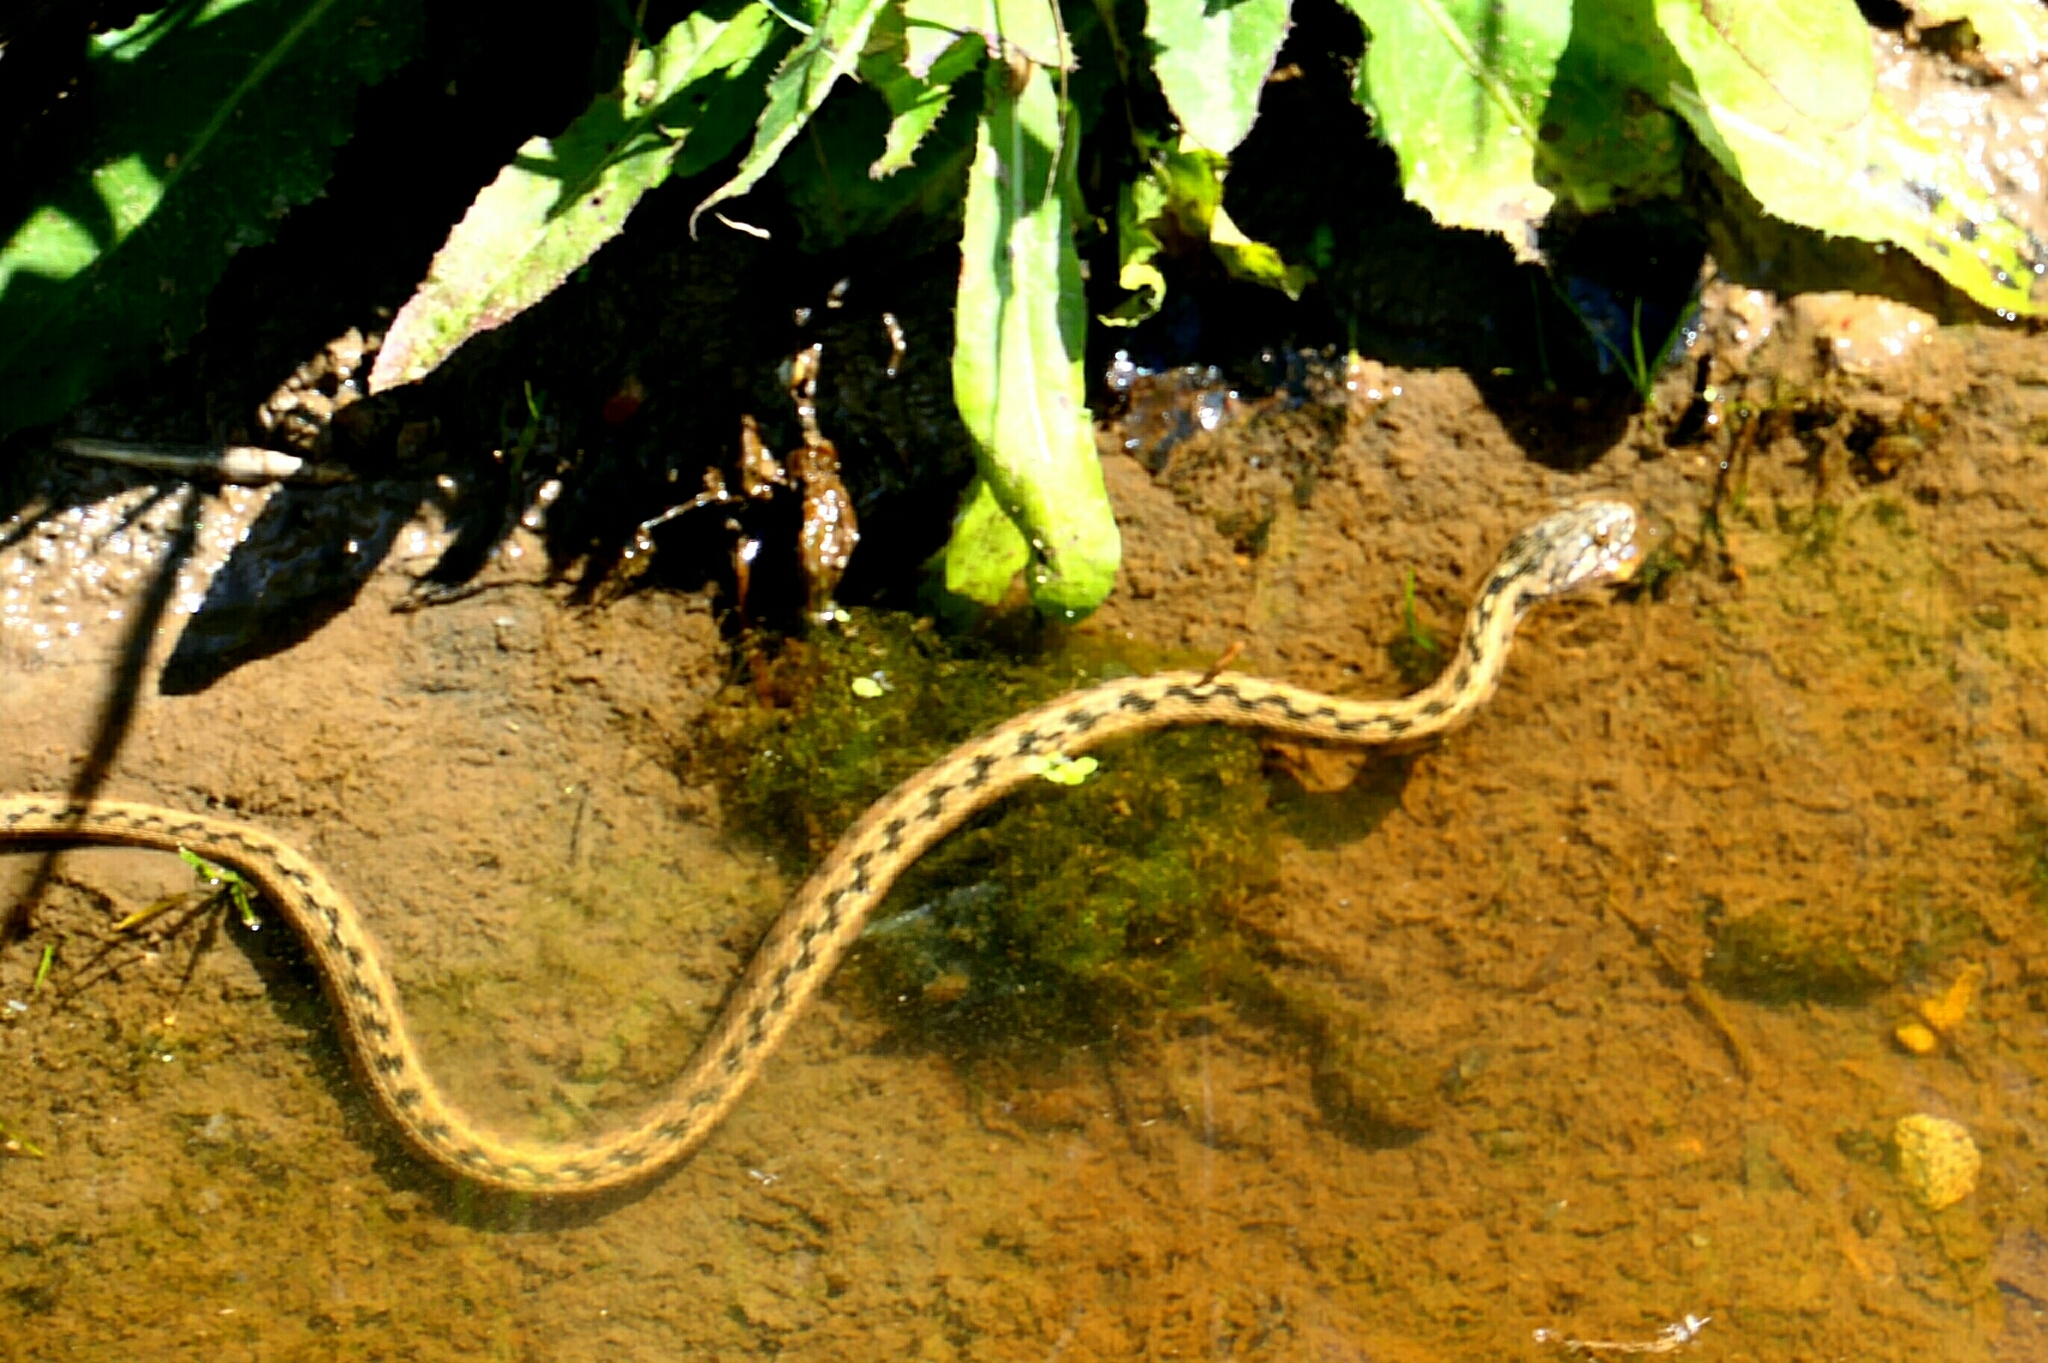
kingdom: Animalia
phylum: Chordata
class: Squamata
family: Colubridae
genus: Natrix
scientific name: Natrix maura
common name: Viperine water snake
